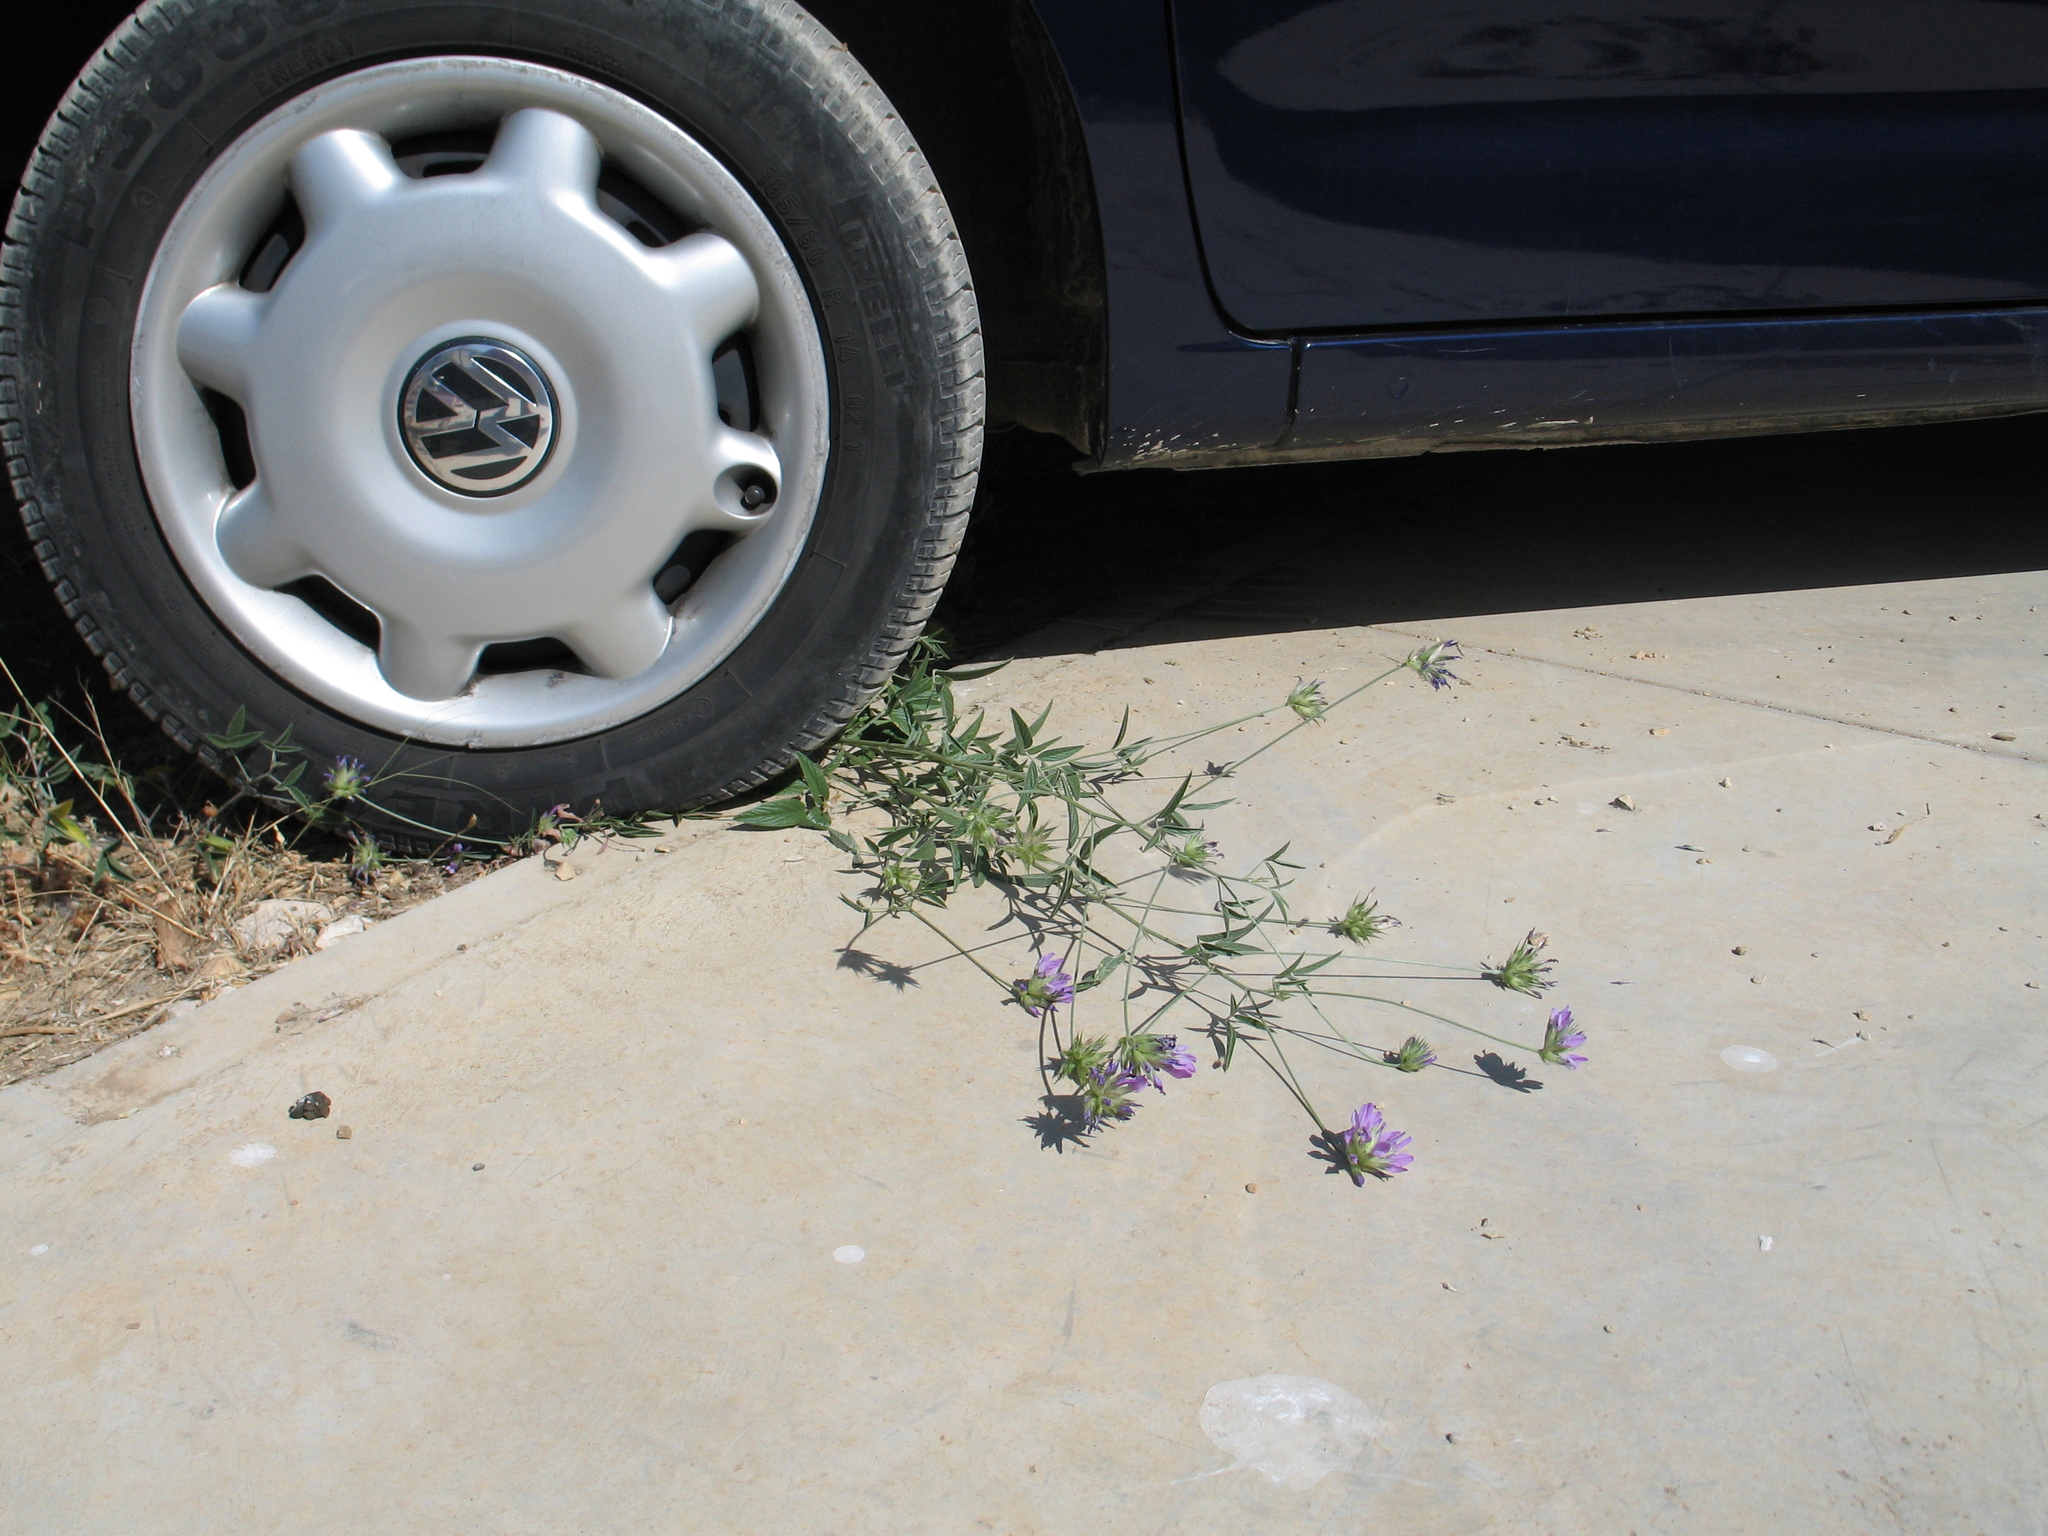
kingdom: Plantae
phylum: Tracheophyta
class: Magnoliopsida
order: Fabales
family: Fabaceae
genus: Bituminaria
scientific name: Bituminaria bituminosa
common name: Arabian pea
